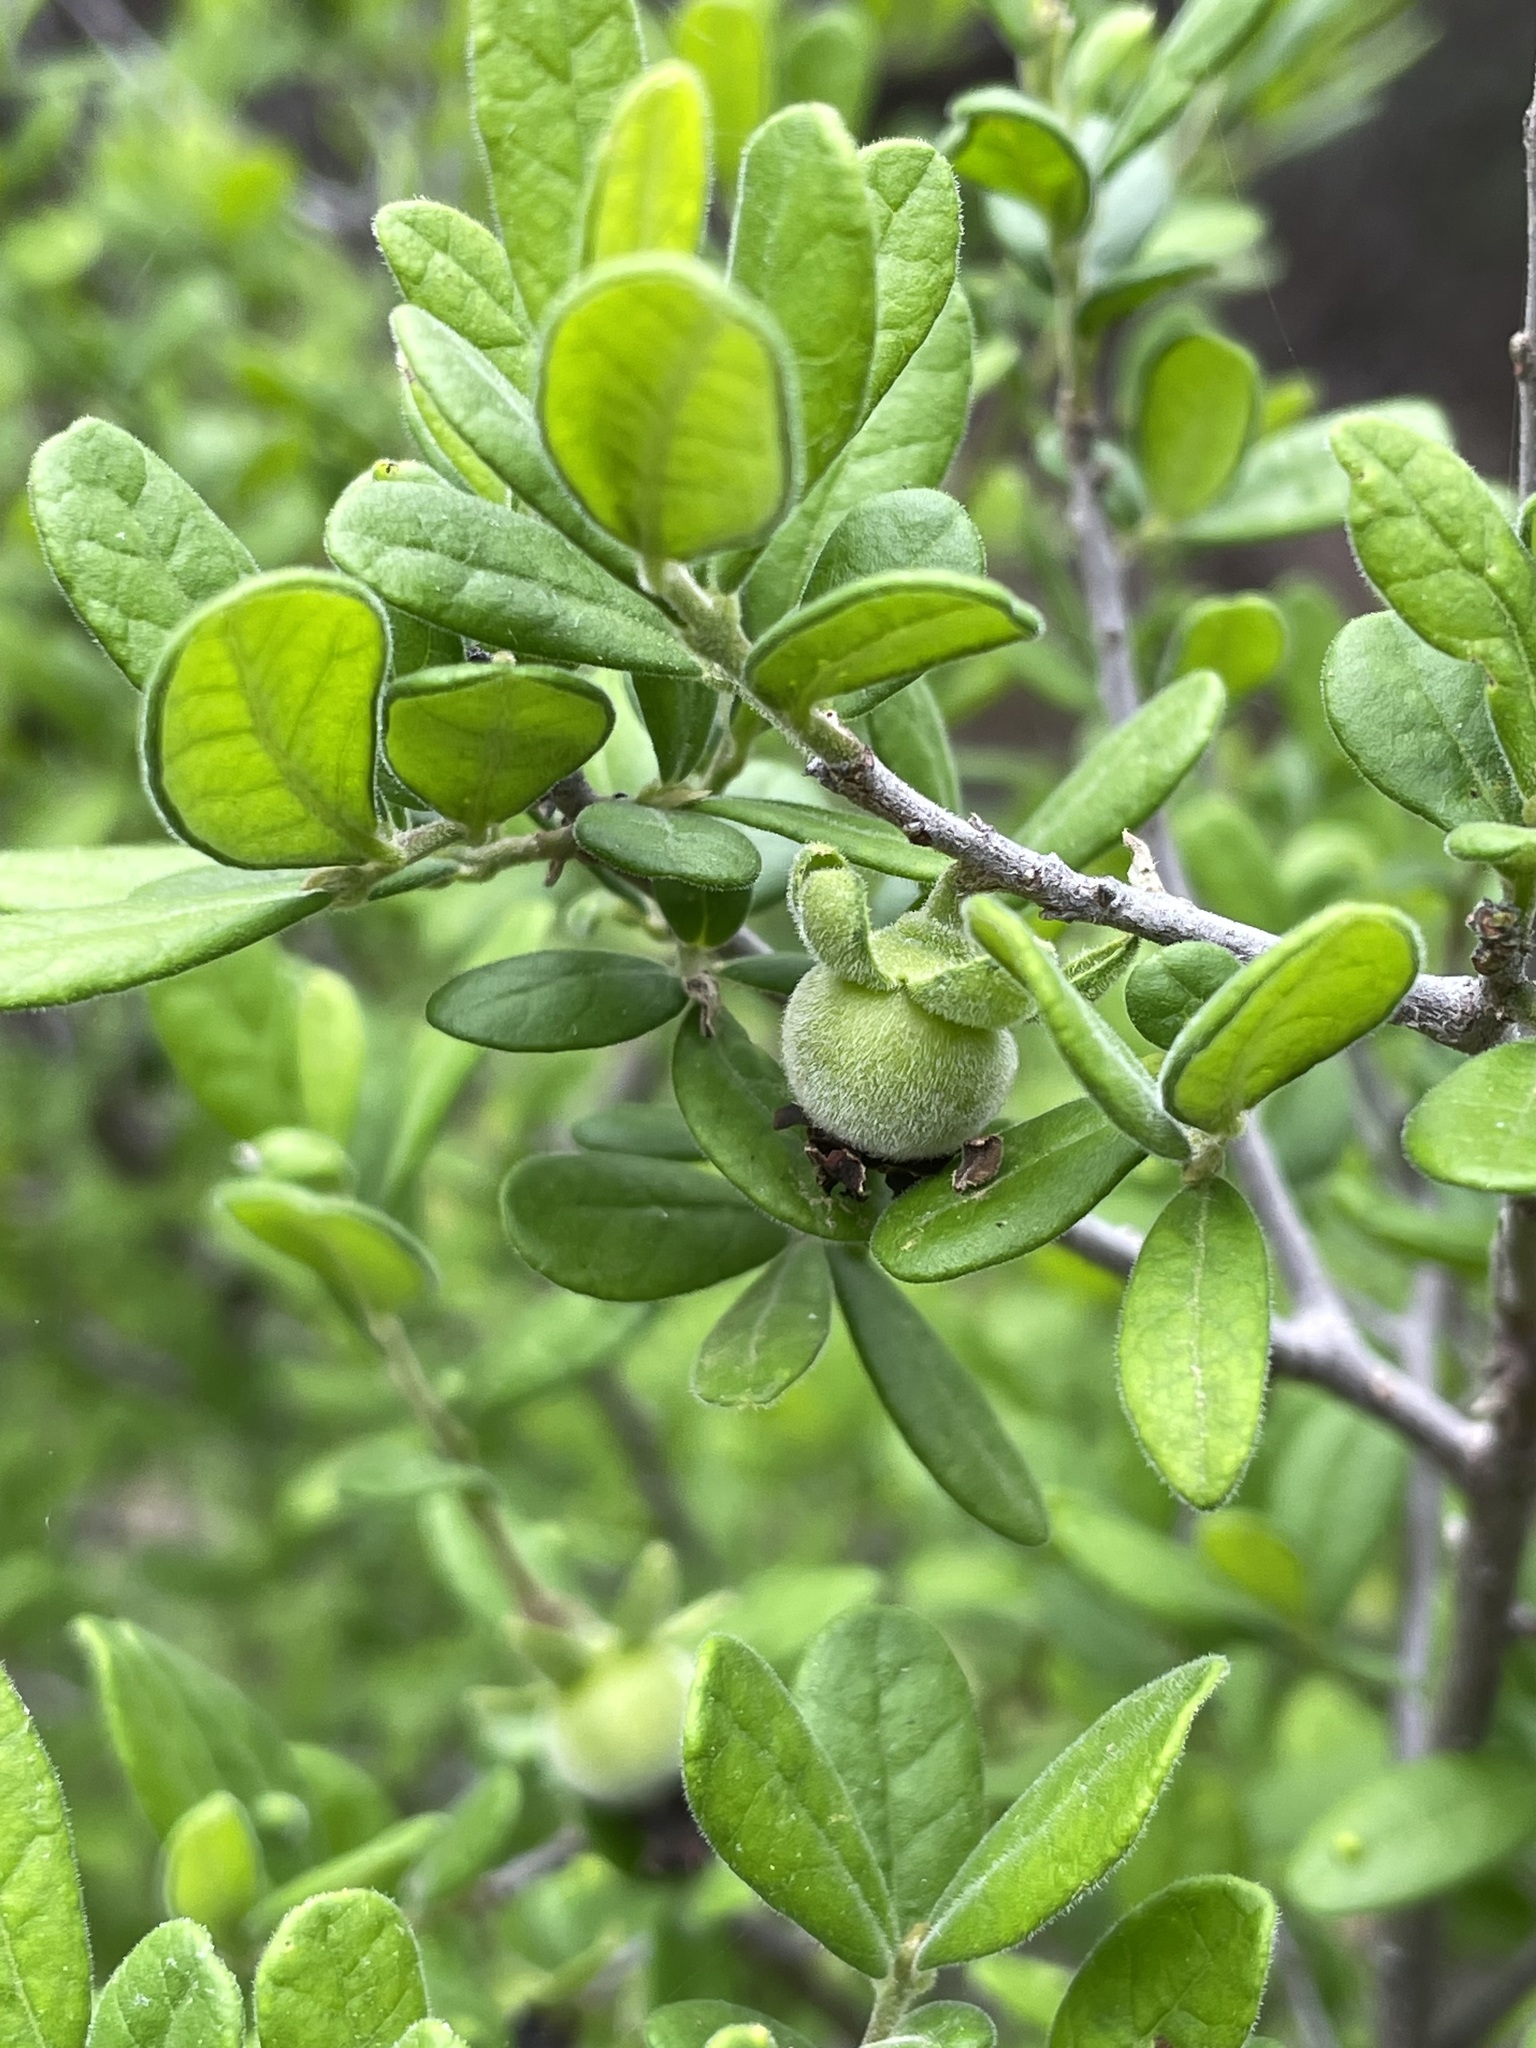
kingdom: Plantae
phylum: Tracheophyta
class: Magnoliopsida
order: Ericales
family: Ebenaceae
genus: Diospyros
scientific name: Diospyros texana
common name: Texas persimmon
